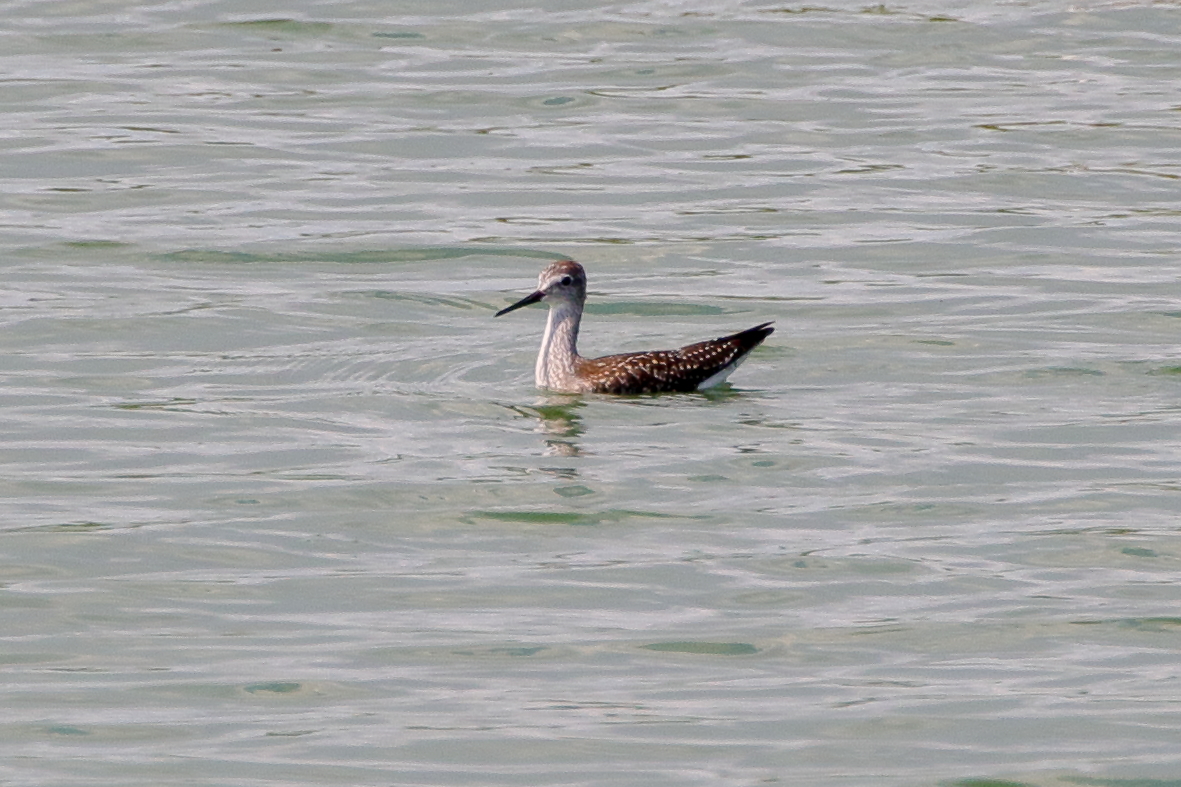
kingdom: Animalia
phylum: Chordata
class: Aves
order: Charadriiformes
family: Scolopacidae
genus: Tringa
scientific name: Tringa flavipes
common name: Lesser yellowlegs
